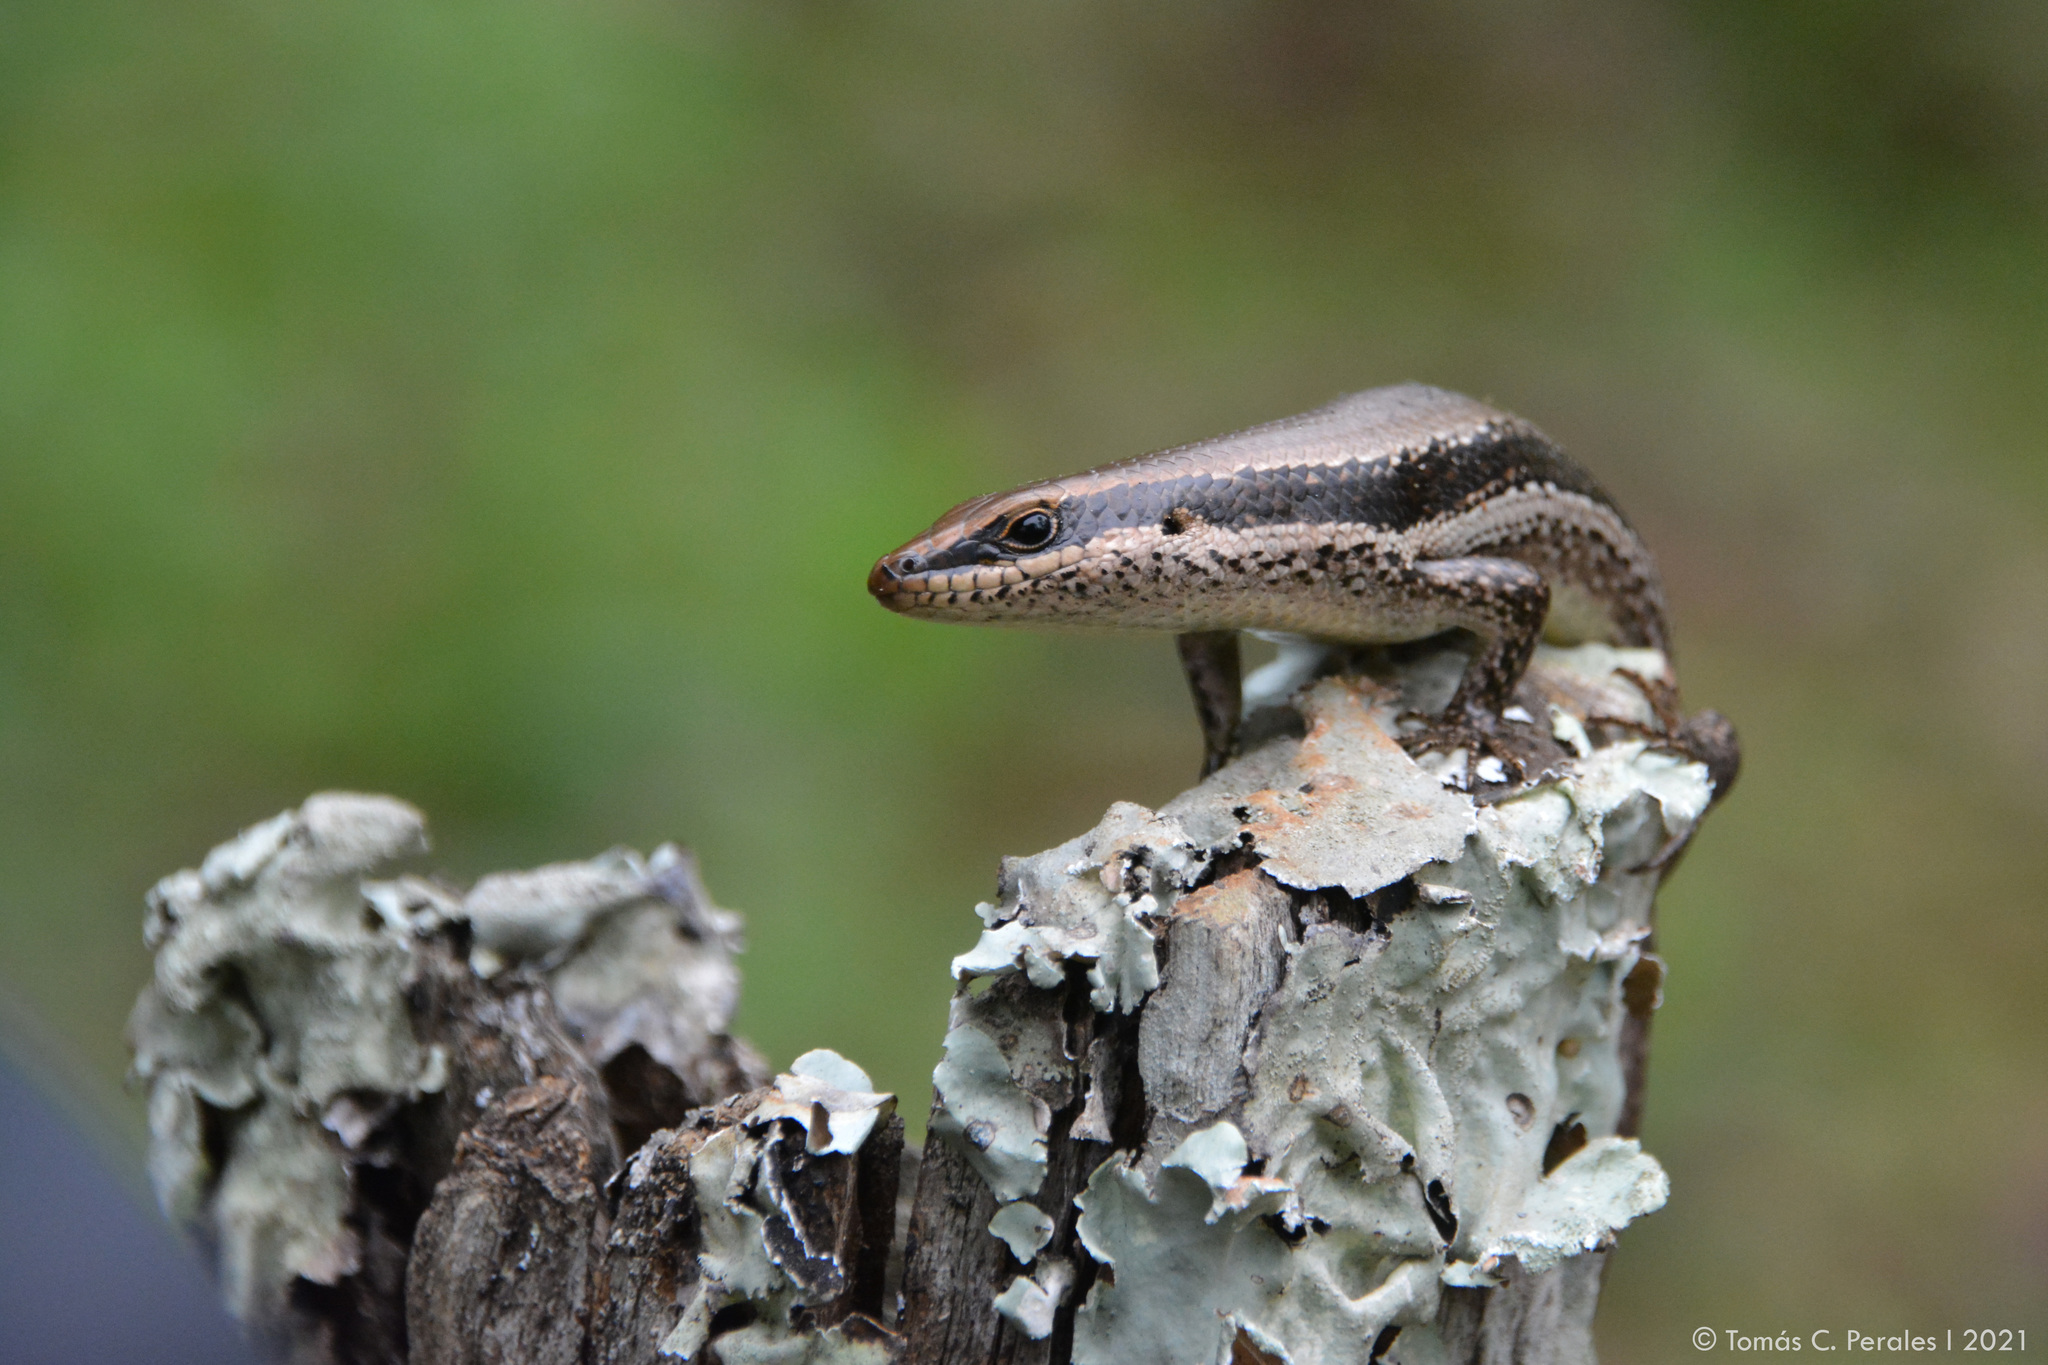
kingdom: Animalia
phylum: Chordata
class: Squamata
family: Scincidae
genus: Notomabuya
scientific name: Notomabuya frenata
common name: Cope's mabuya
